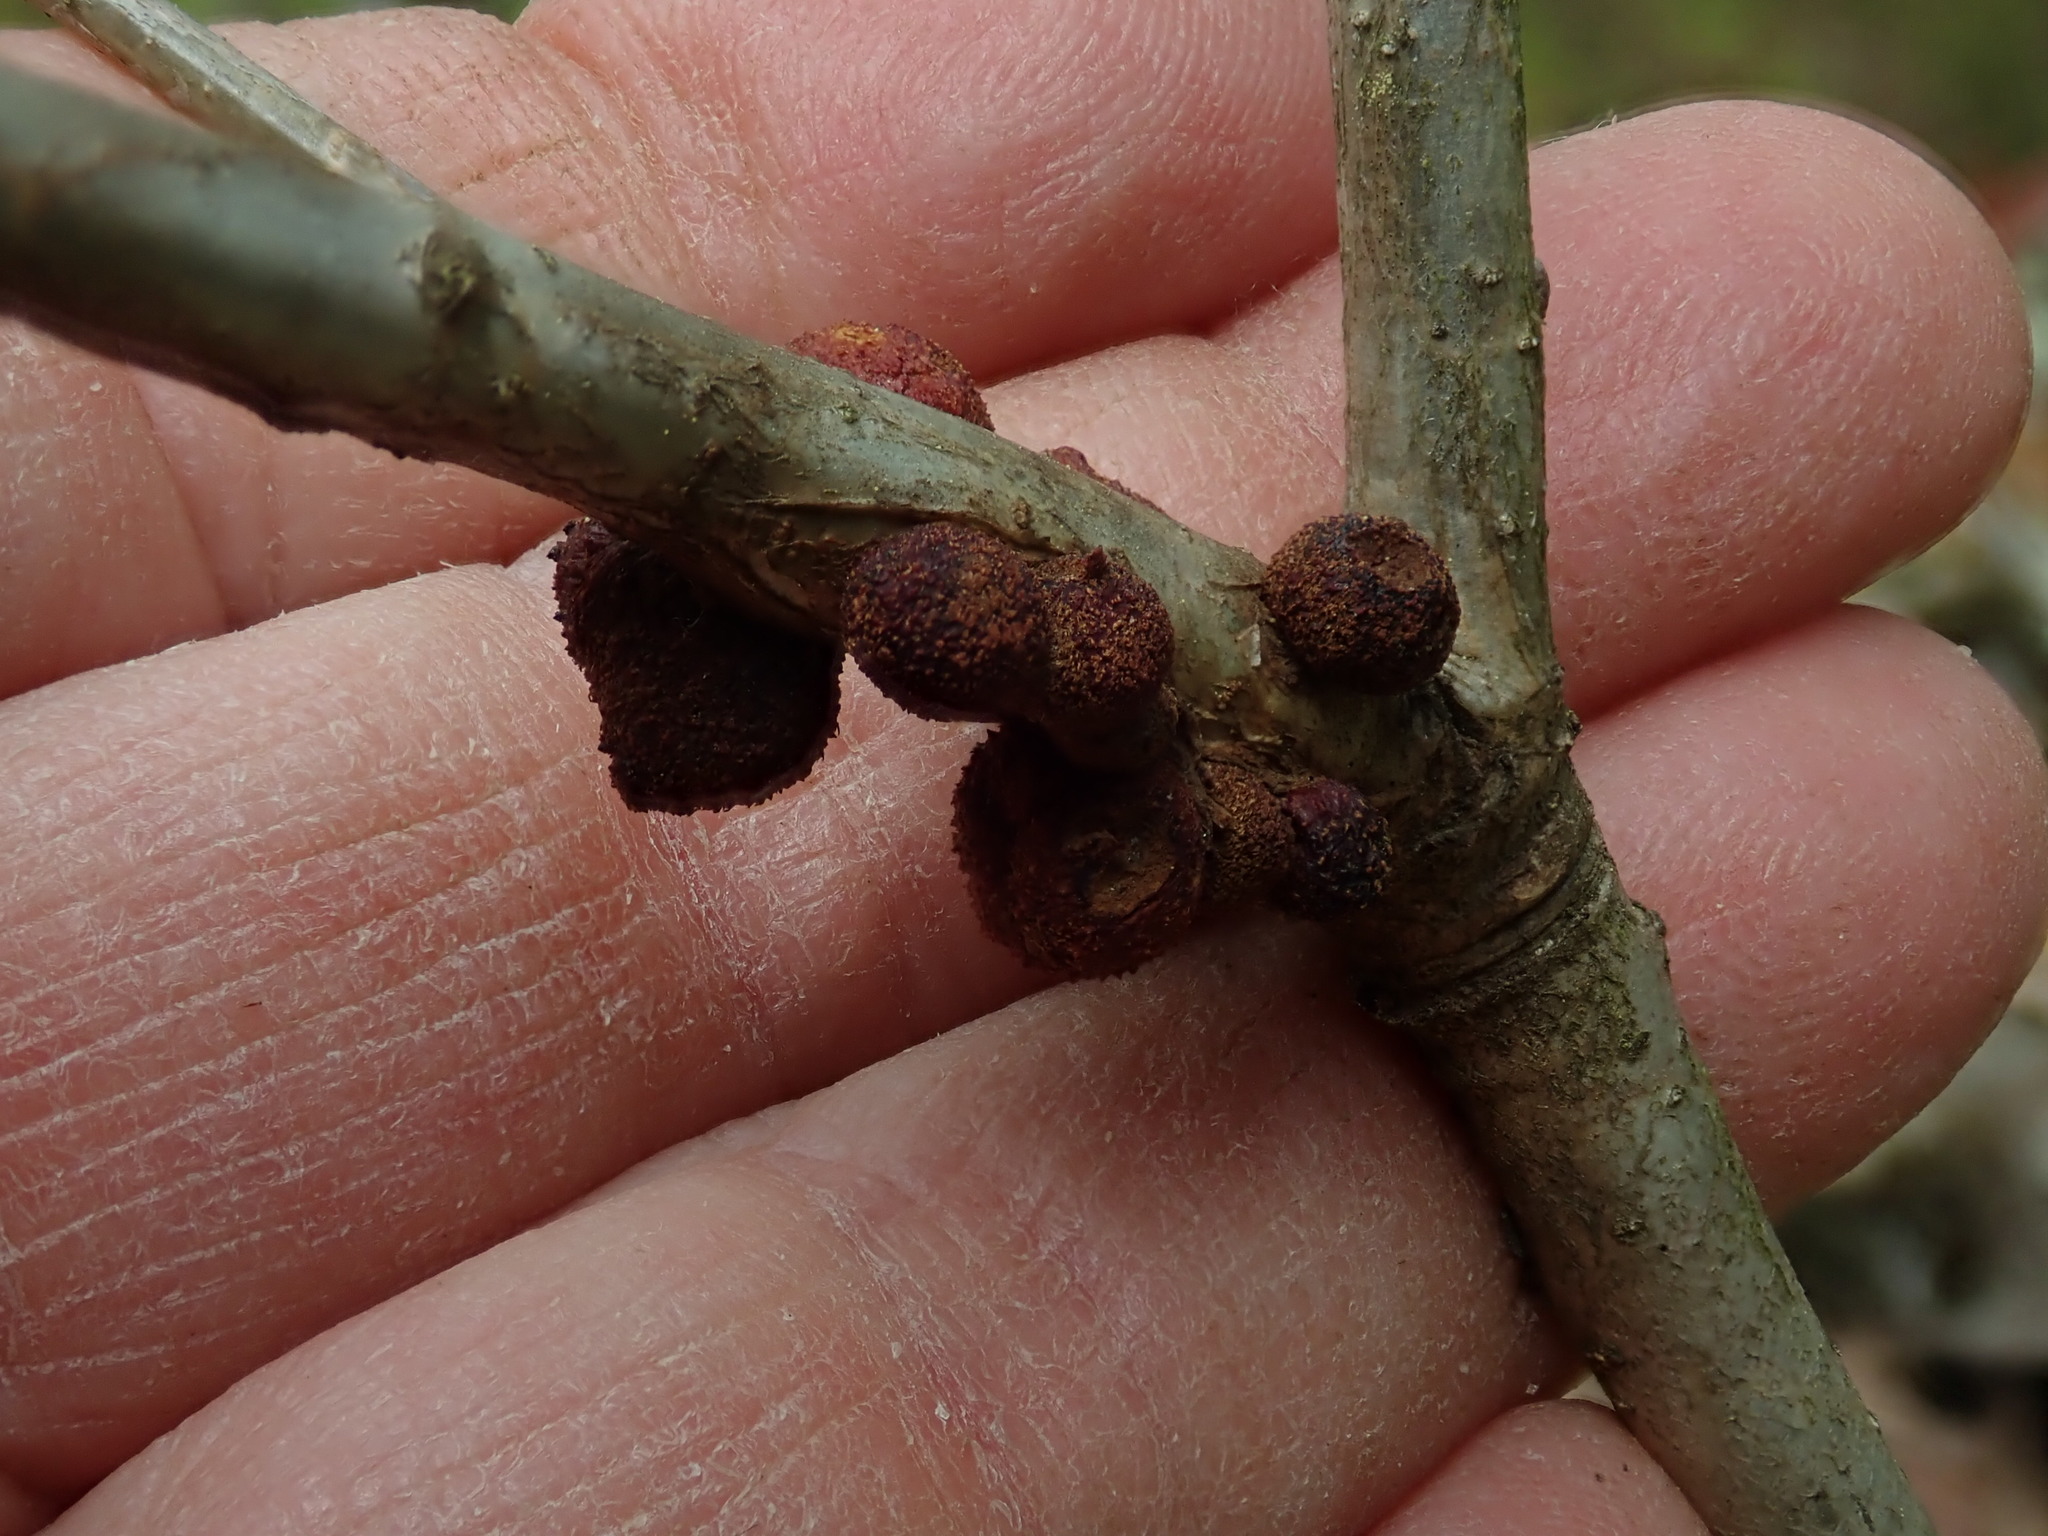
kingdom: Animalia
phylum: Arthropoda
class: Insecta
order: Hymenoptera
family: Cynipidae
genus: Disholcaspis
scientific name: Disholcaspis
